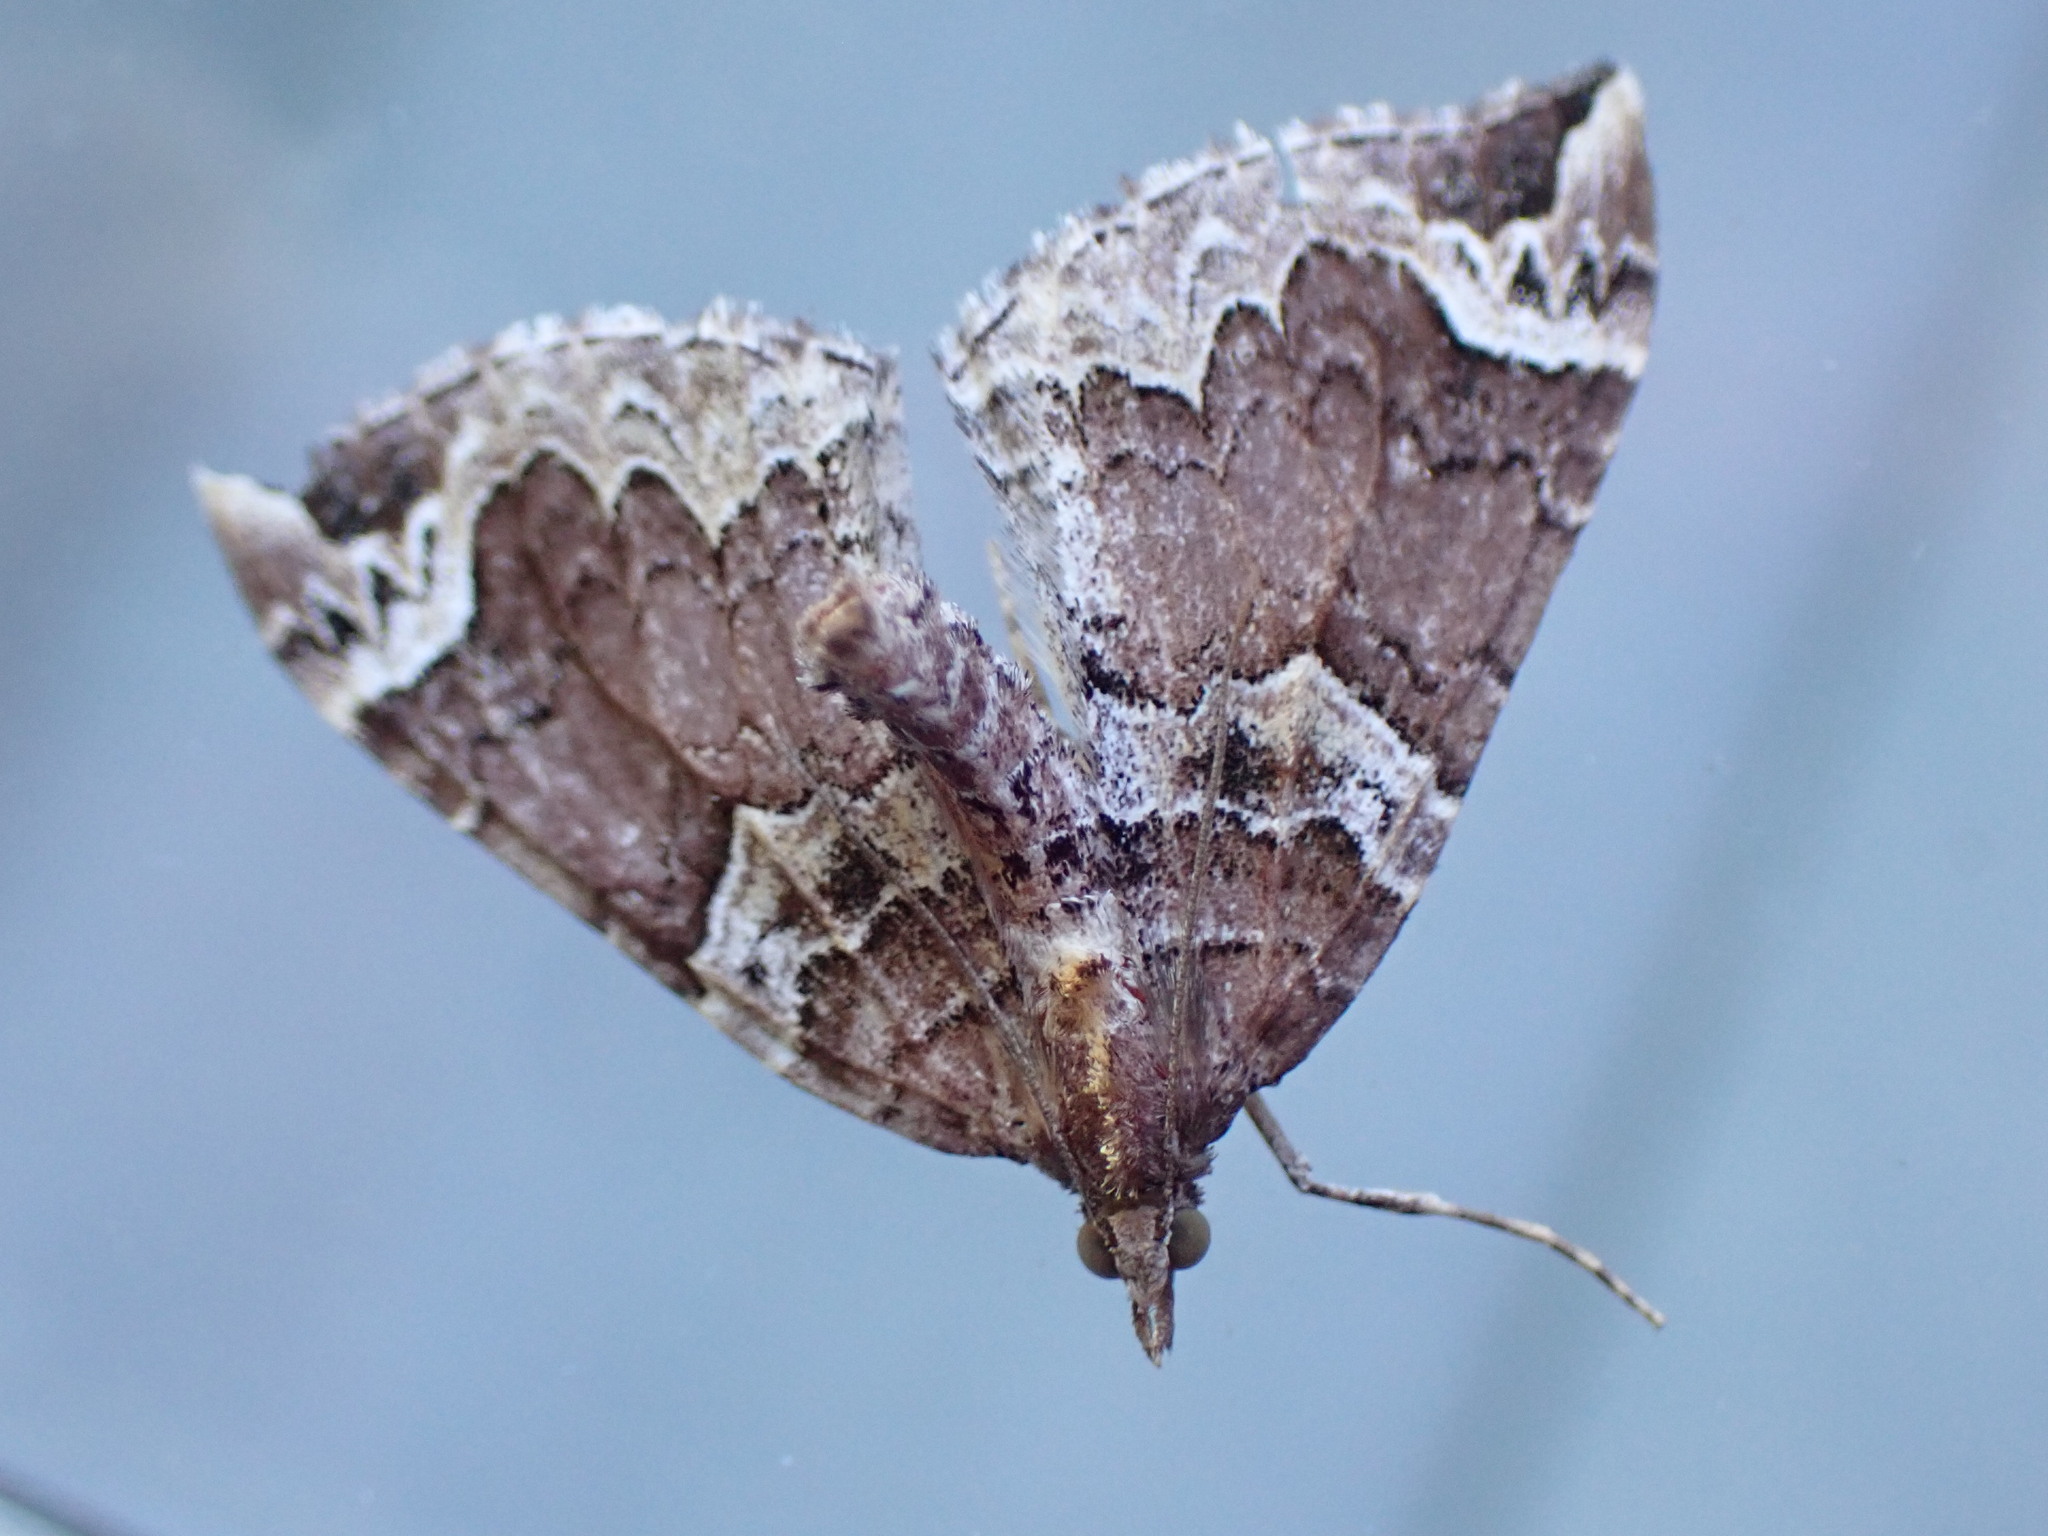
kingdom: Animalia
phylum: Arthropoda
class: Insecta
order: Lepidoptera
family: Geometridae
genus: Eulithis
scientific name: Eulithis xylina
